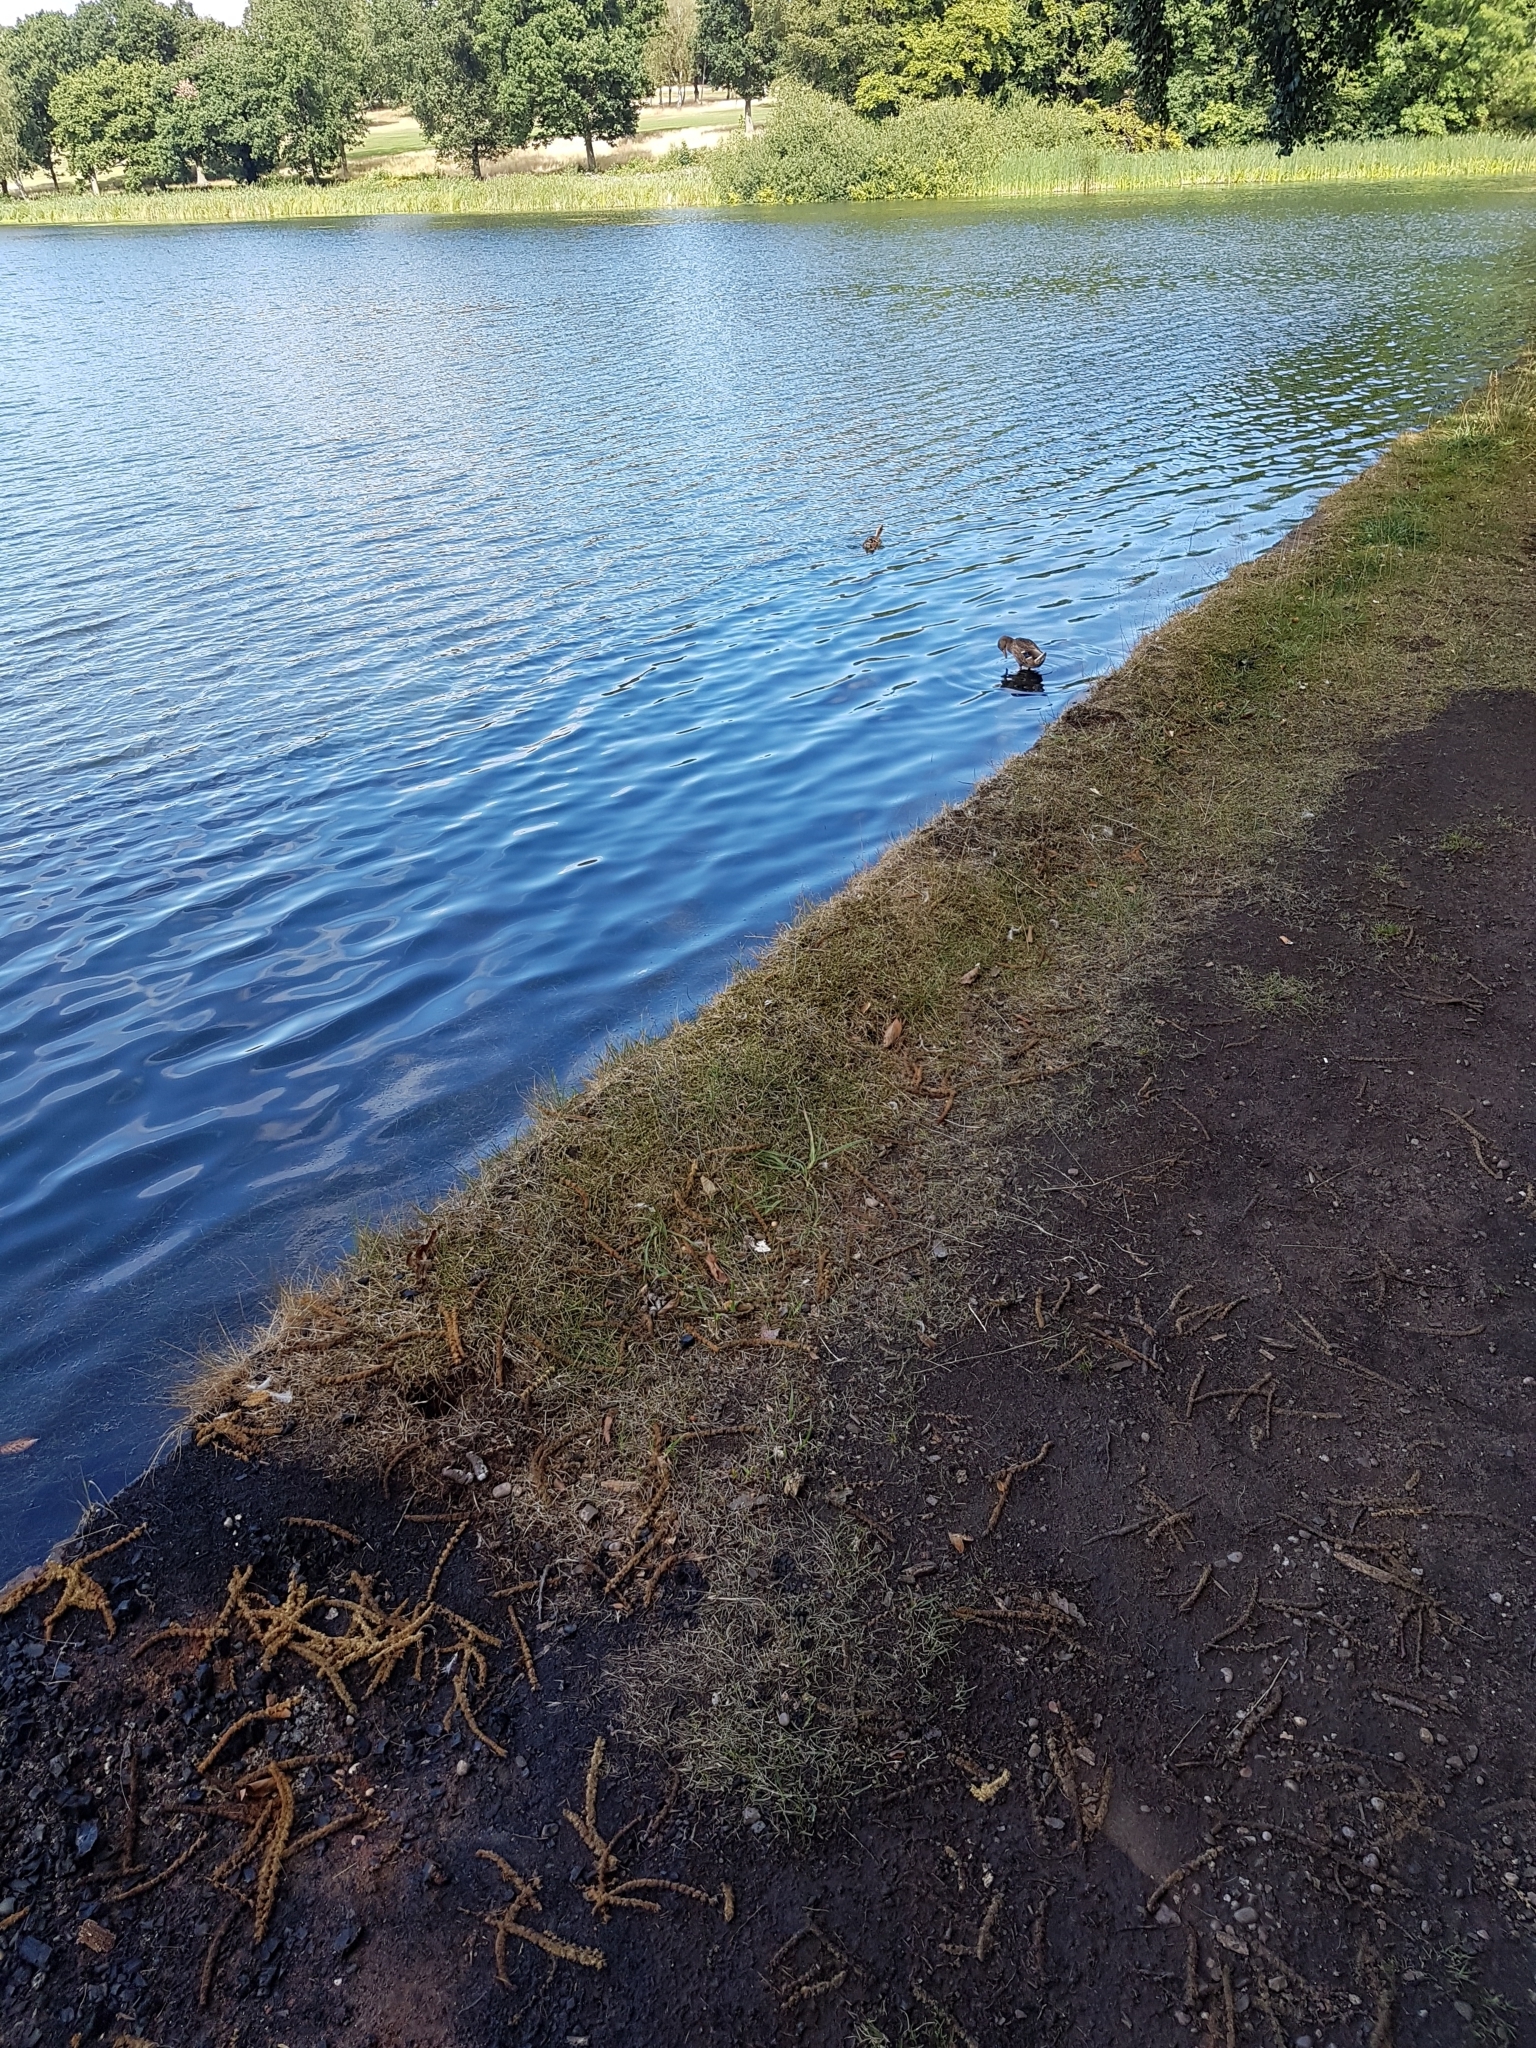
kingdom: Animalia
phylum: Chordata
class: Aves
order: Anseriformes
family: Anatidae
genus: Anas
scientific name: Anas platyrhynchos
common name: Mallard
